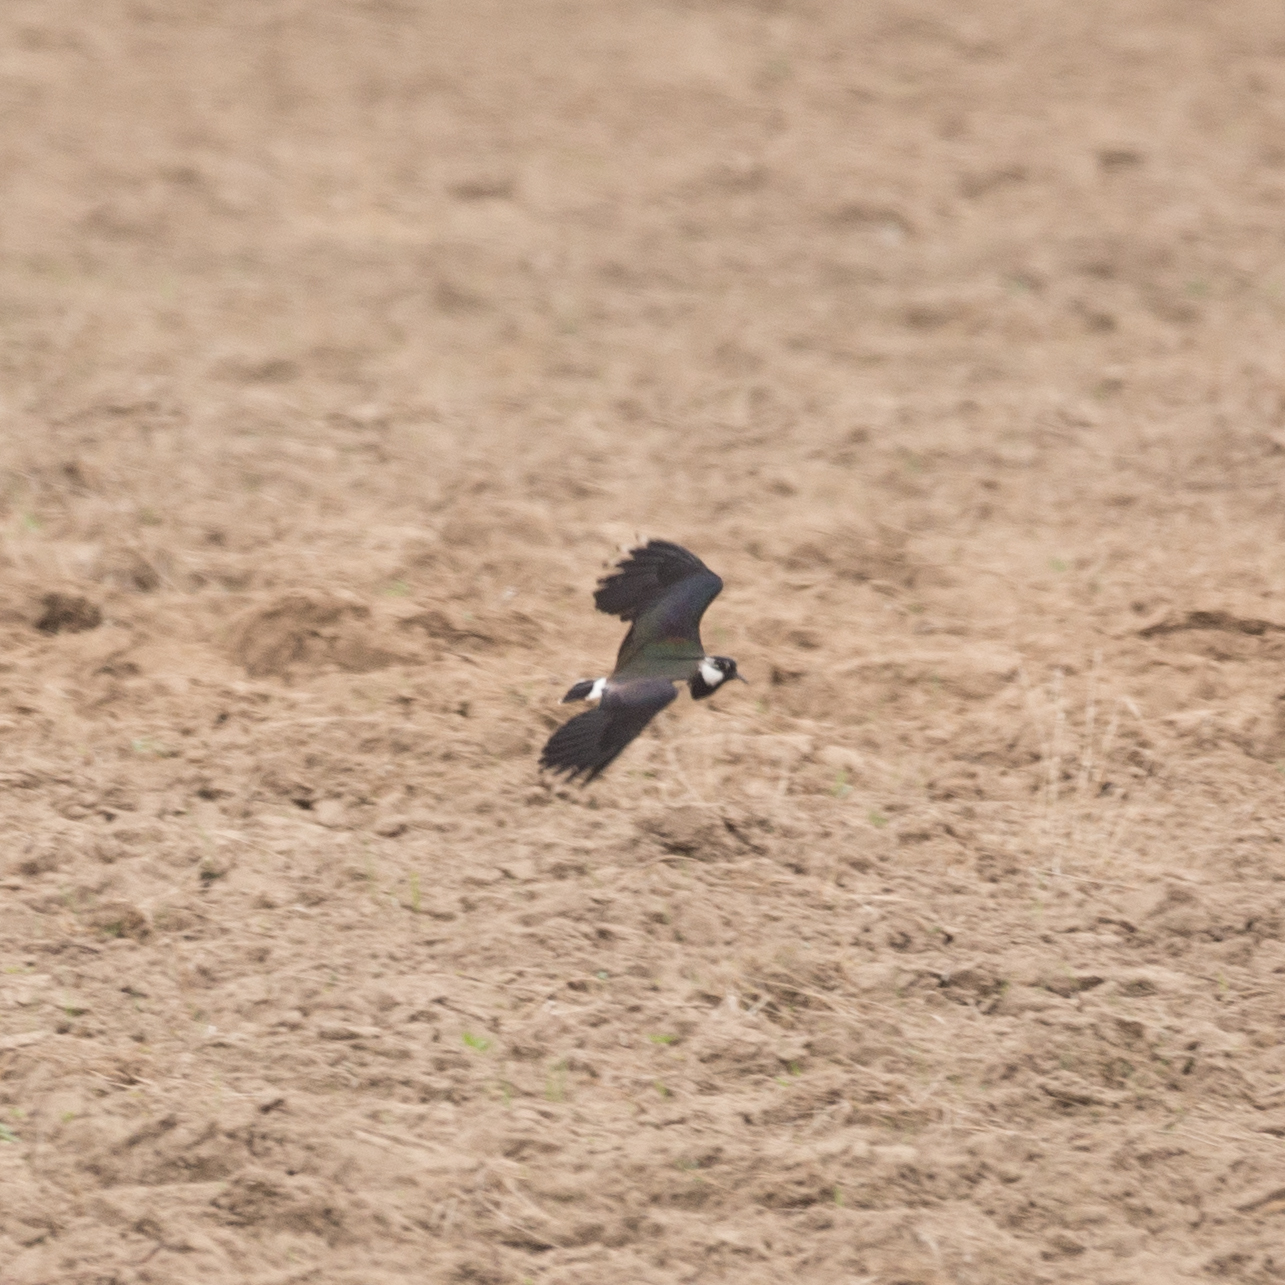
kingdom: Animalia
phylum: Chordata
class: Aves
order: Charadriiformes
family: Charadriidae
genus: Vanellus
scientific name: Vanellus vanellus
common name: Northern lapwing
